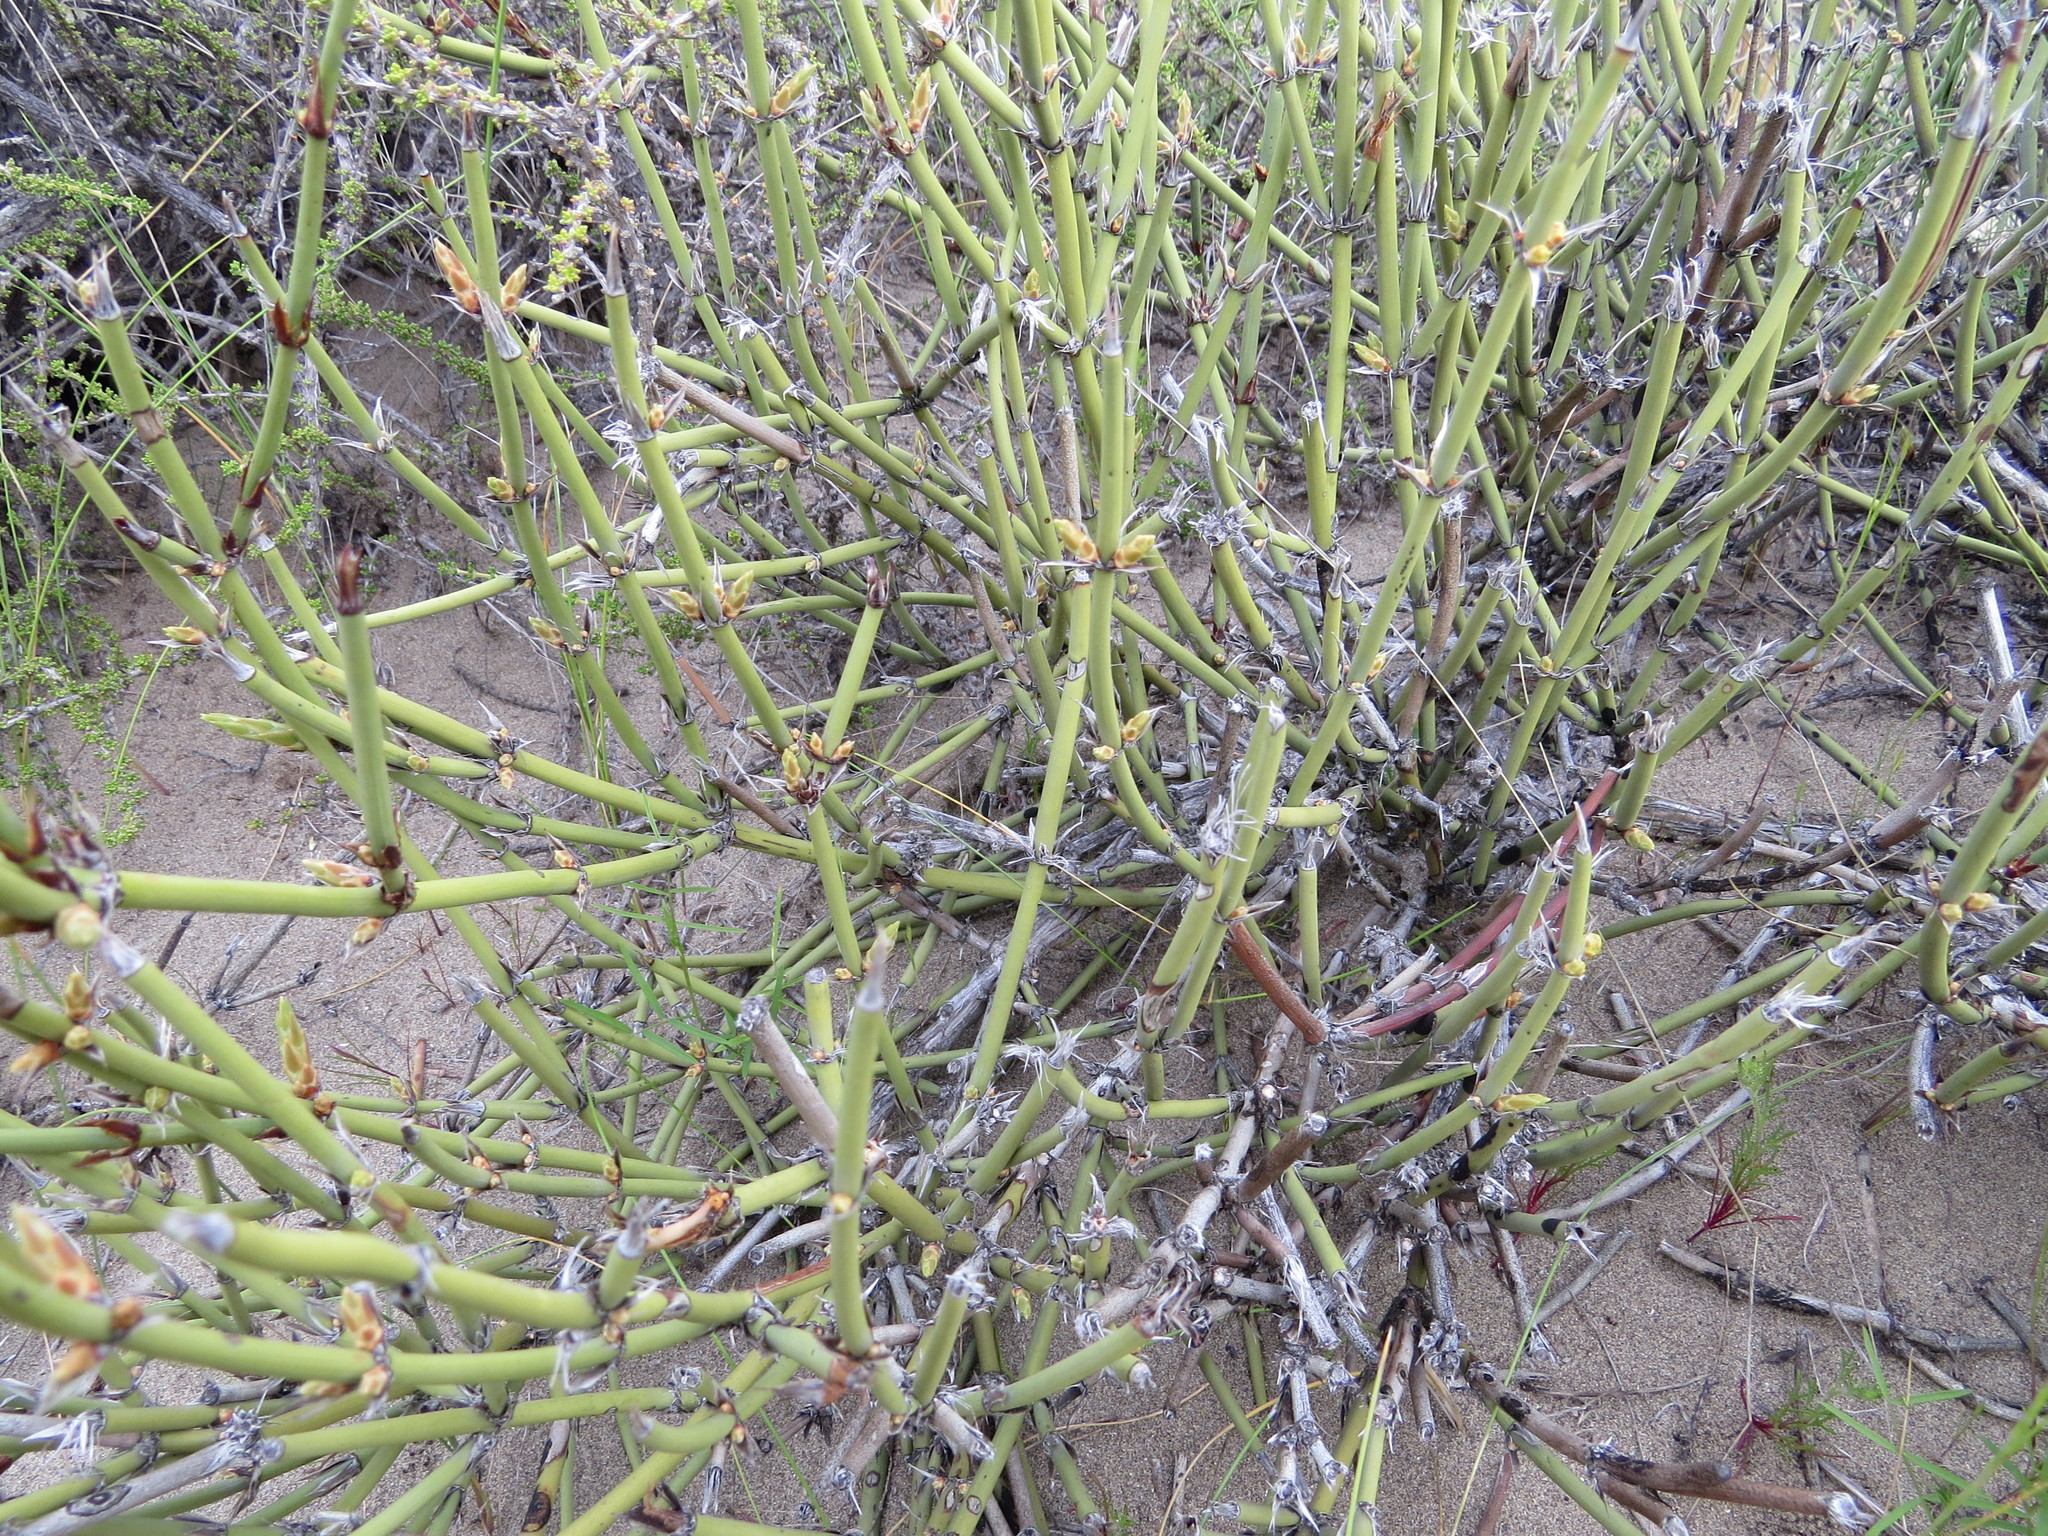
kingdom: Plantae
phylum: Tracheophyta
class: Gnetopsida
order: Ephedrales
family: Ephedraceae
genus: Ephedra
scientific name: Ephedra ochreata
